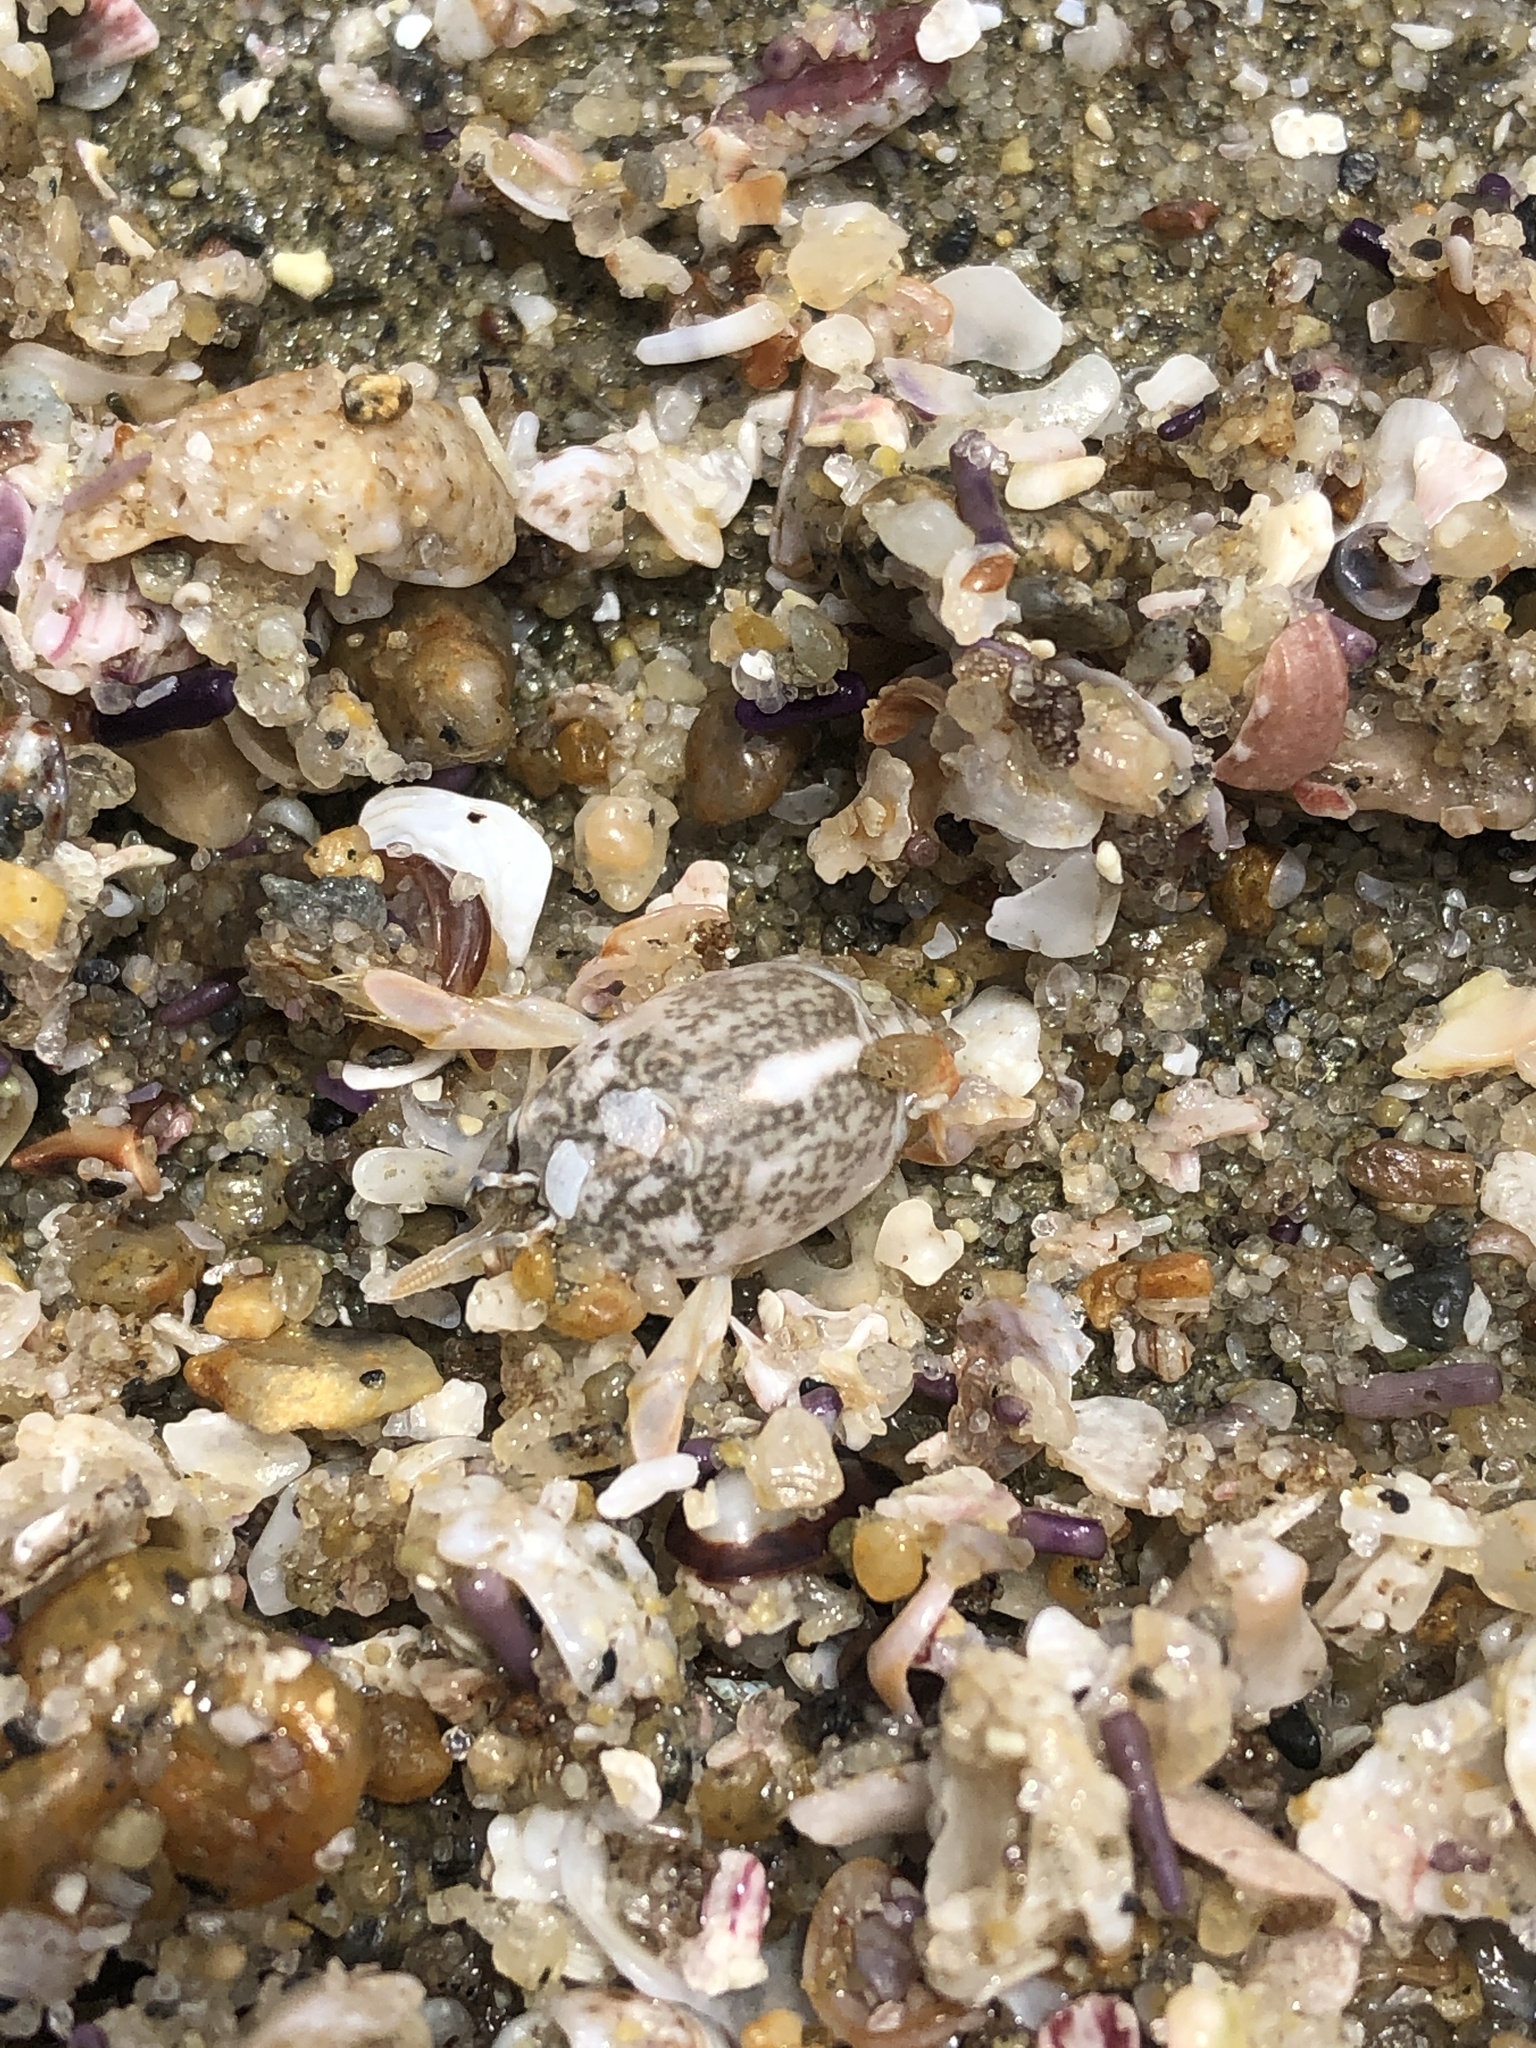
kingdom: Animalia
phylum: Arthropoda
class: Malacostraca
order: Decapoda
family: Hippidae
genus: Emerita
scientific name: Emerita analoga
